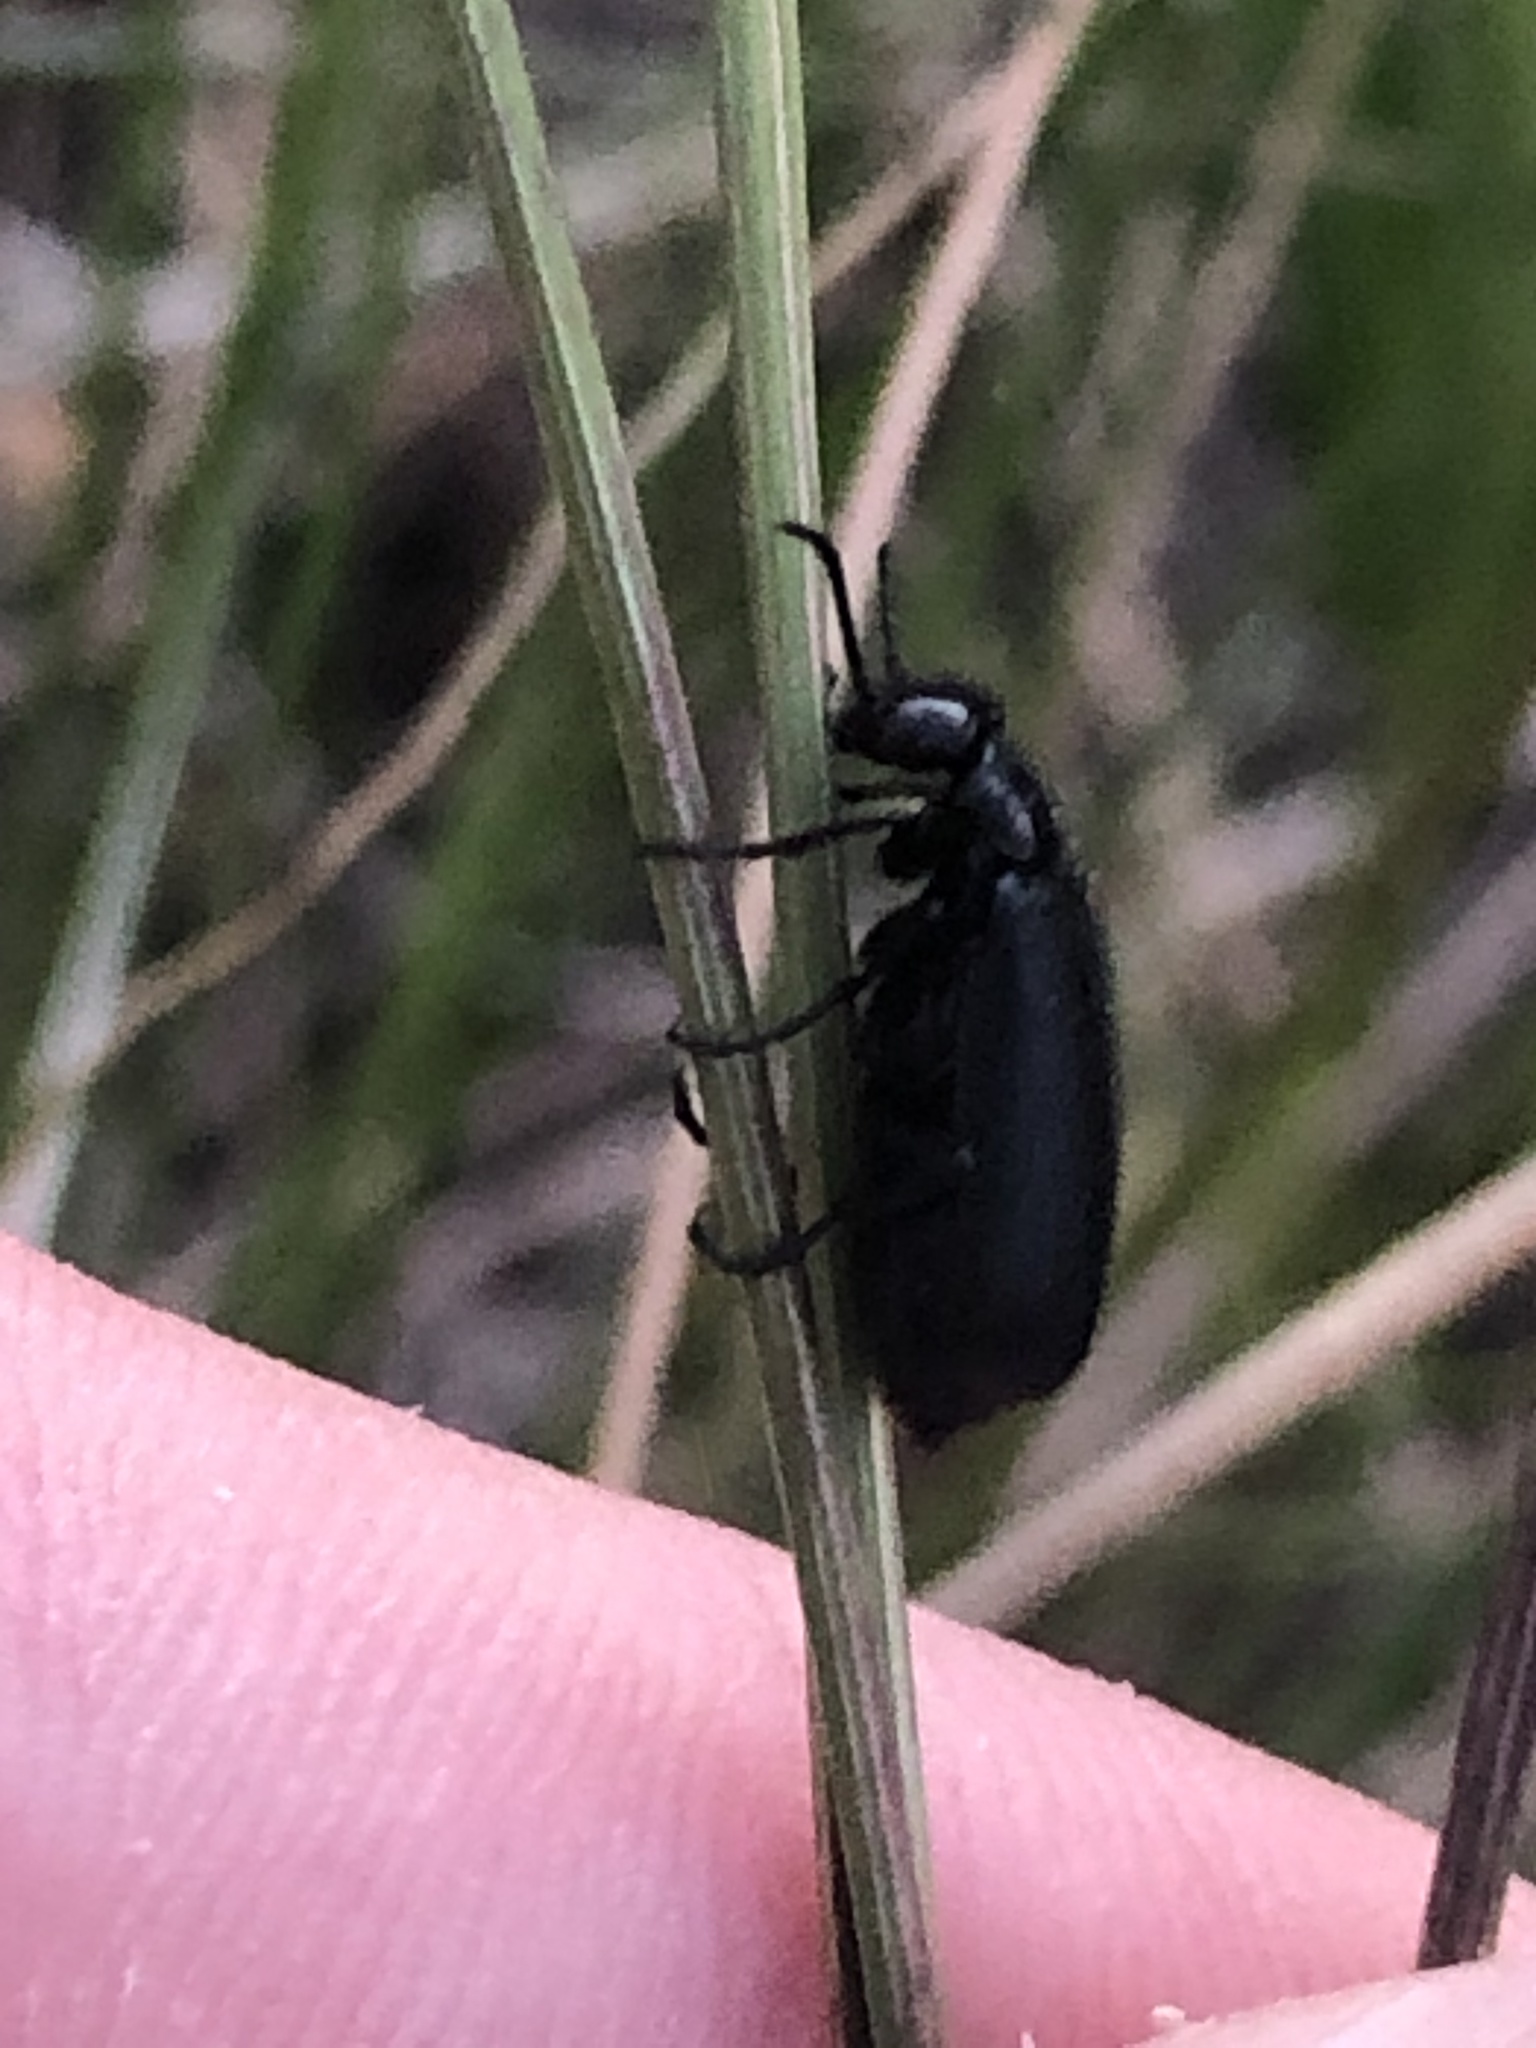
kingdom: Animalia
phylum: Arthropoda
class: Insecta
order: Coleoptera
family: Meloidae
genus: Epicauta
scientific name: Epicauta puncticollis
